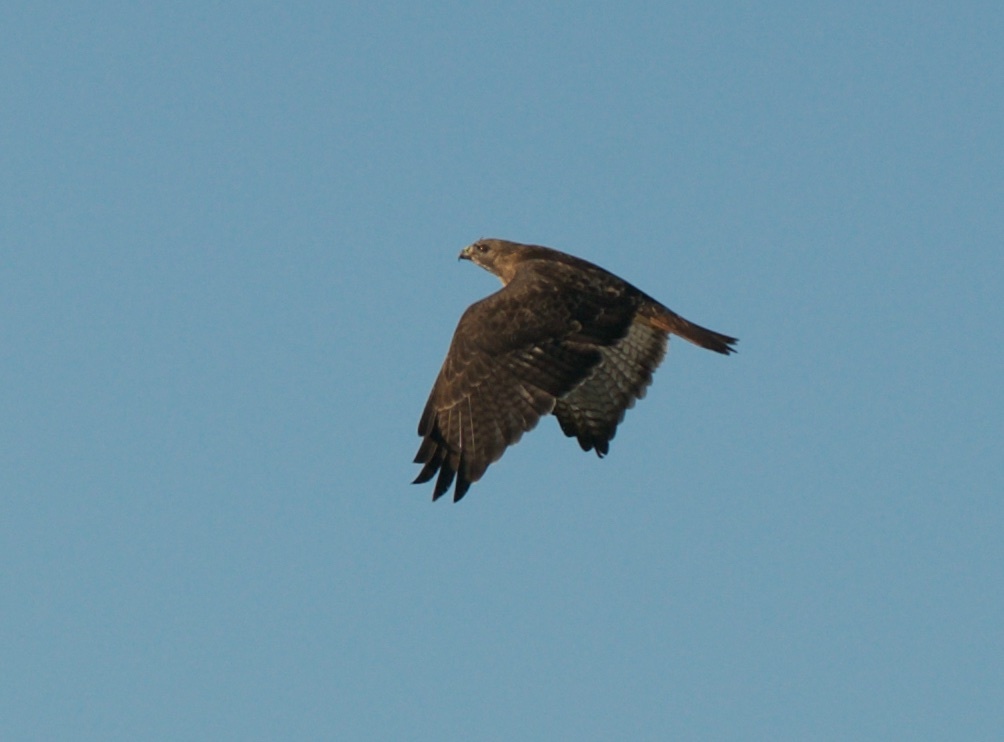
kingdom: Animalia
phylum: Chordata
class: Aves
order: Accipitriformes
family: Accipitridae
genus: Buteo
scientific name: Buteo jamaicensis
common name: Red-tailed hawk
